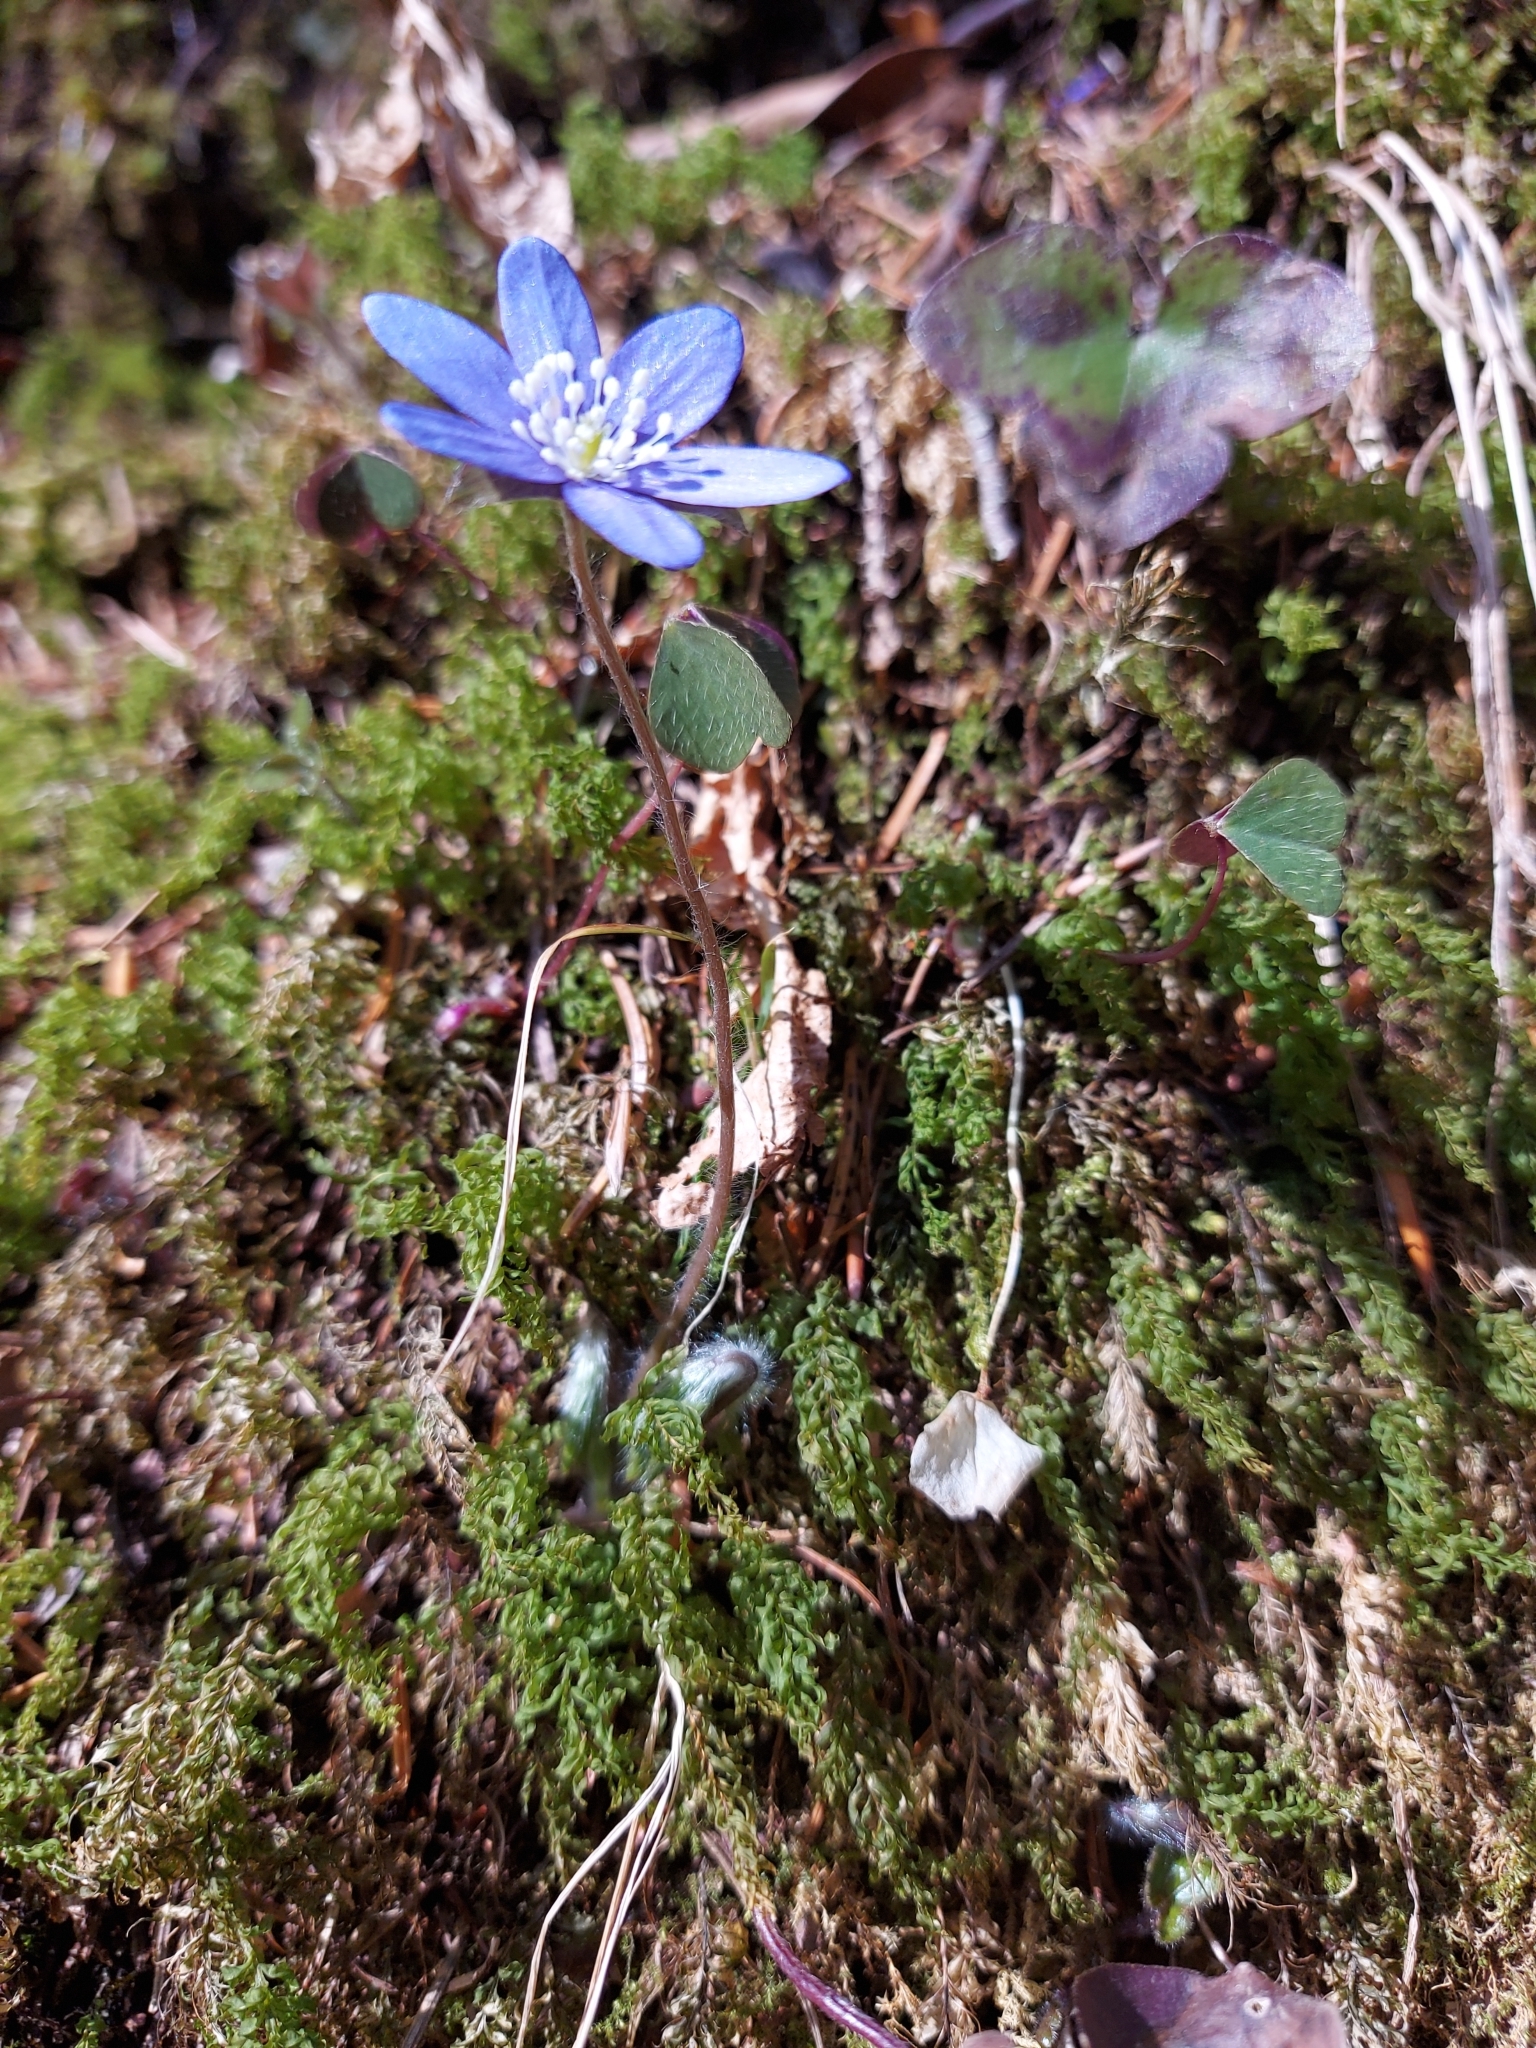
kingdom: Plantae
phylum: Tracheophyta
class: Magnoliopsida
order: Ranunculales
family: Ranunculaceae
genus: Hepatica
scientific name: Hepatica nobilis
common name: Liverleaf
